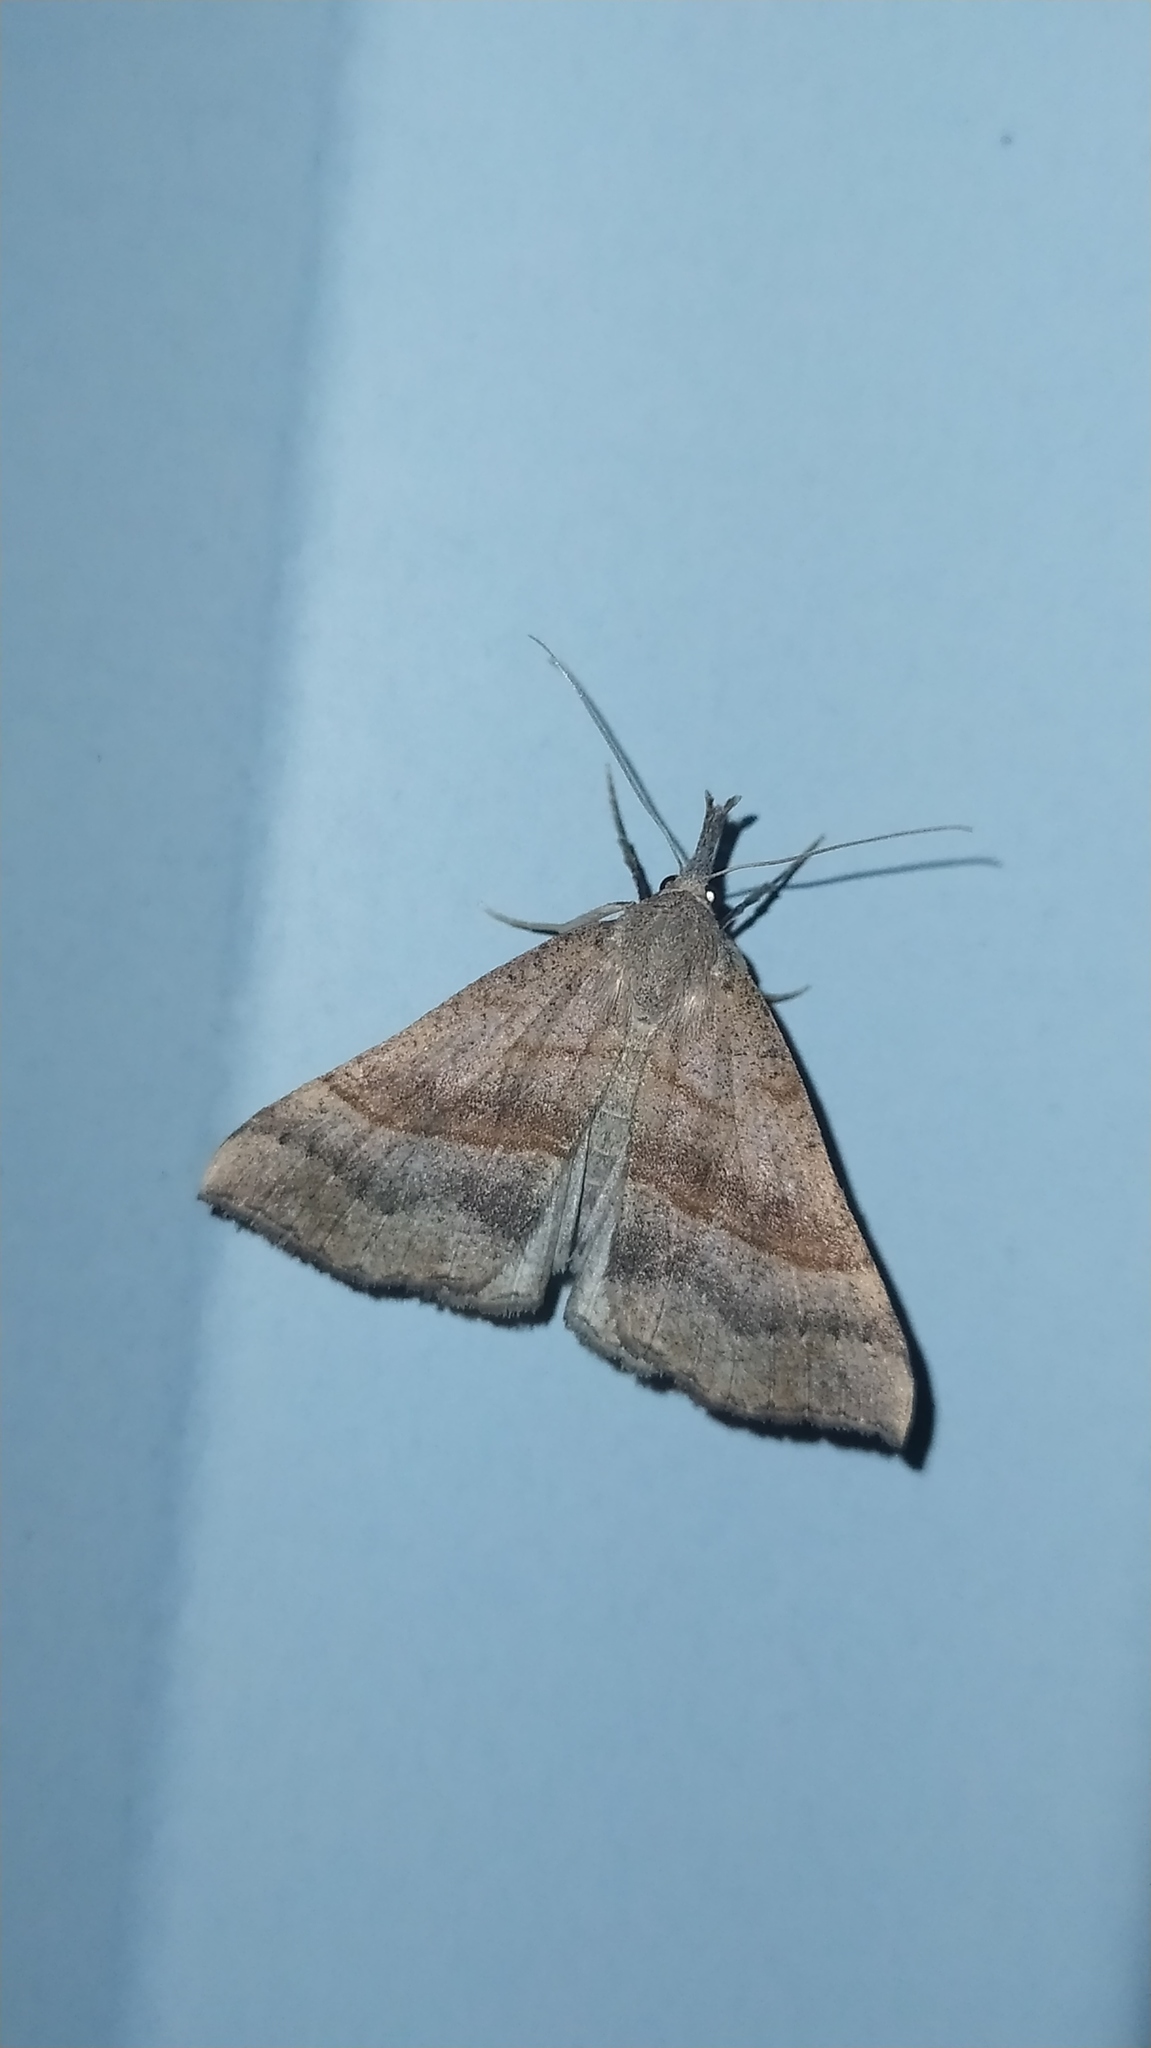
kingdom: Animalia
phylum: Arthropoda
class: Insecta
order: Lepidoptera
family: Erebidae
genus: Hypena
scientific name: Hypena proboscidalis
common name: Snout
